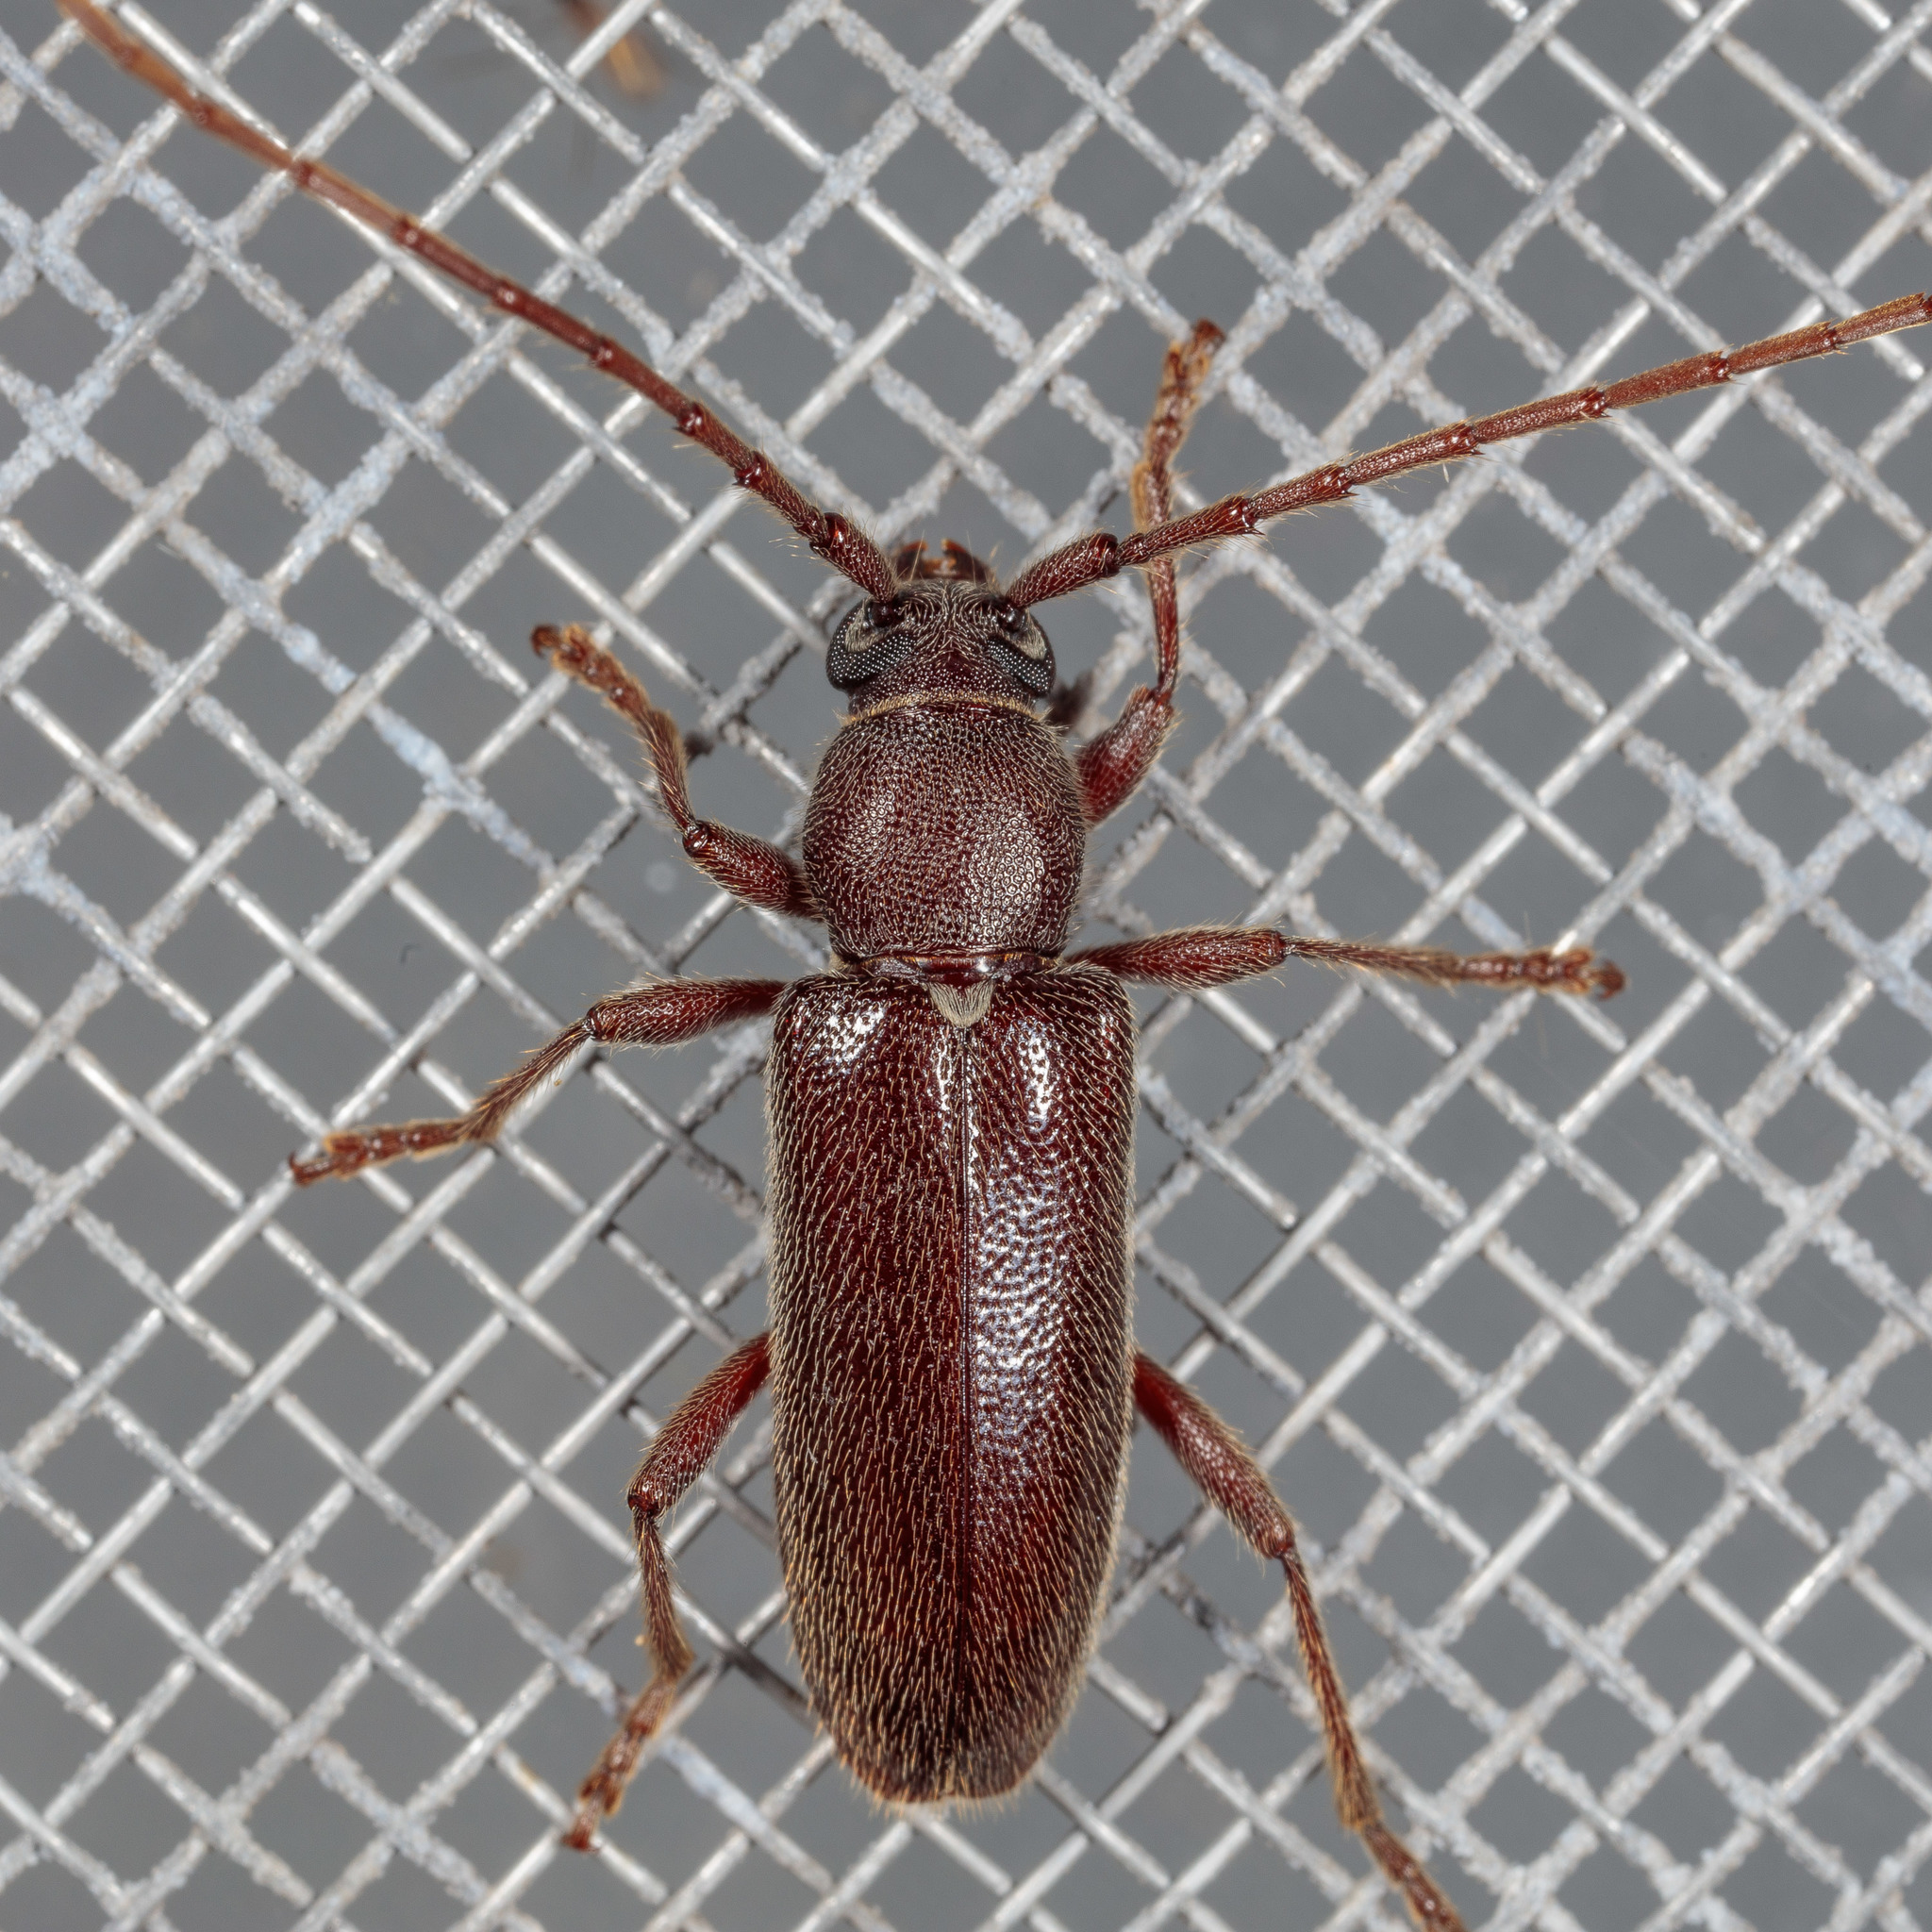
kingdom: Animalia
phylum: Arthropoda
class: Insecta
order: Coleoptera
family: Cerambycidae
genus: Anelaphus
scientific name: Anelaphus moestus
